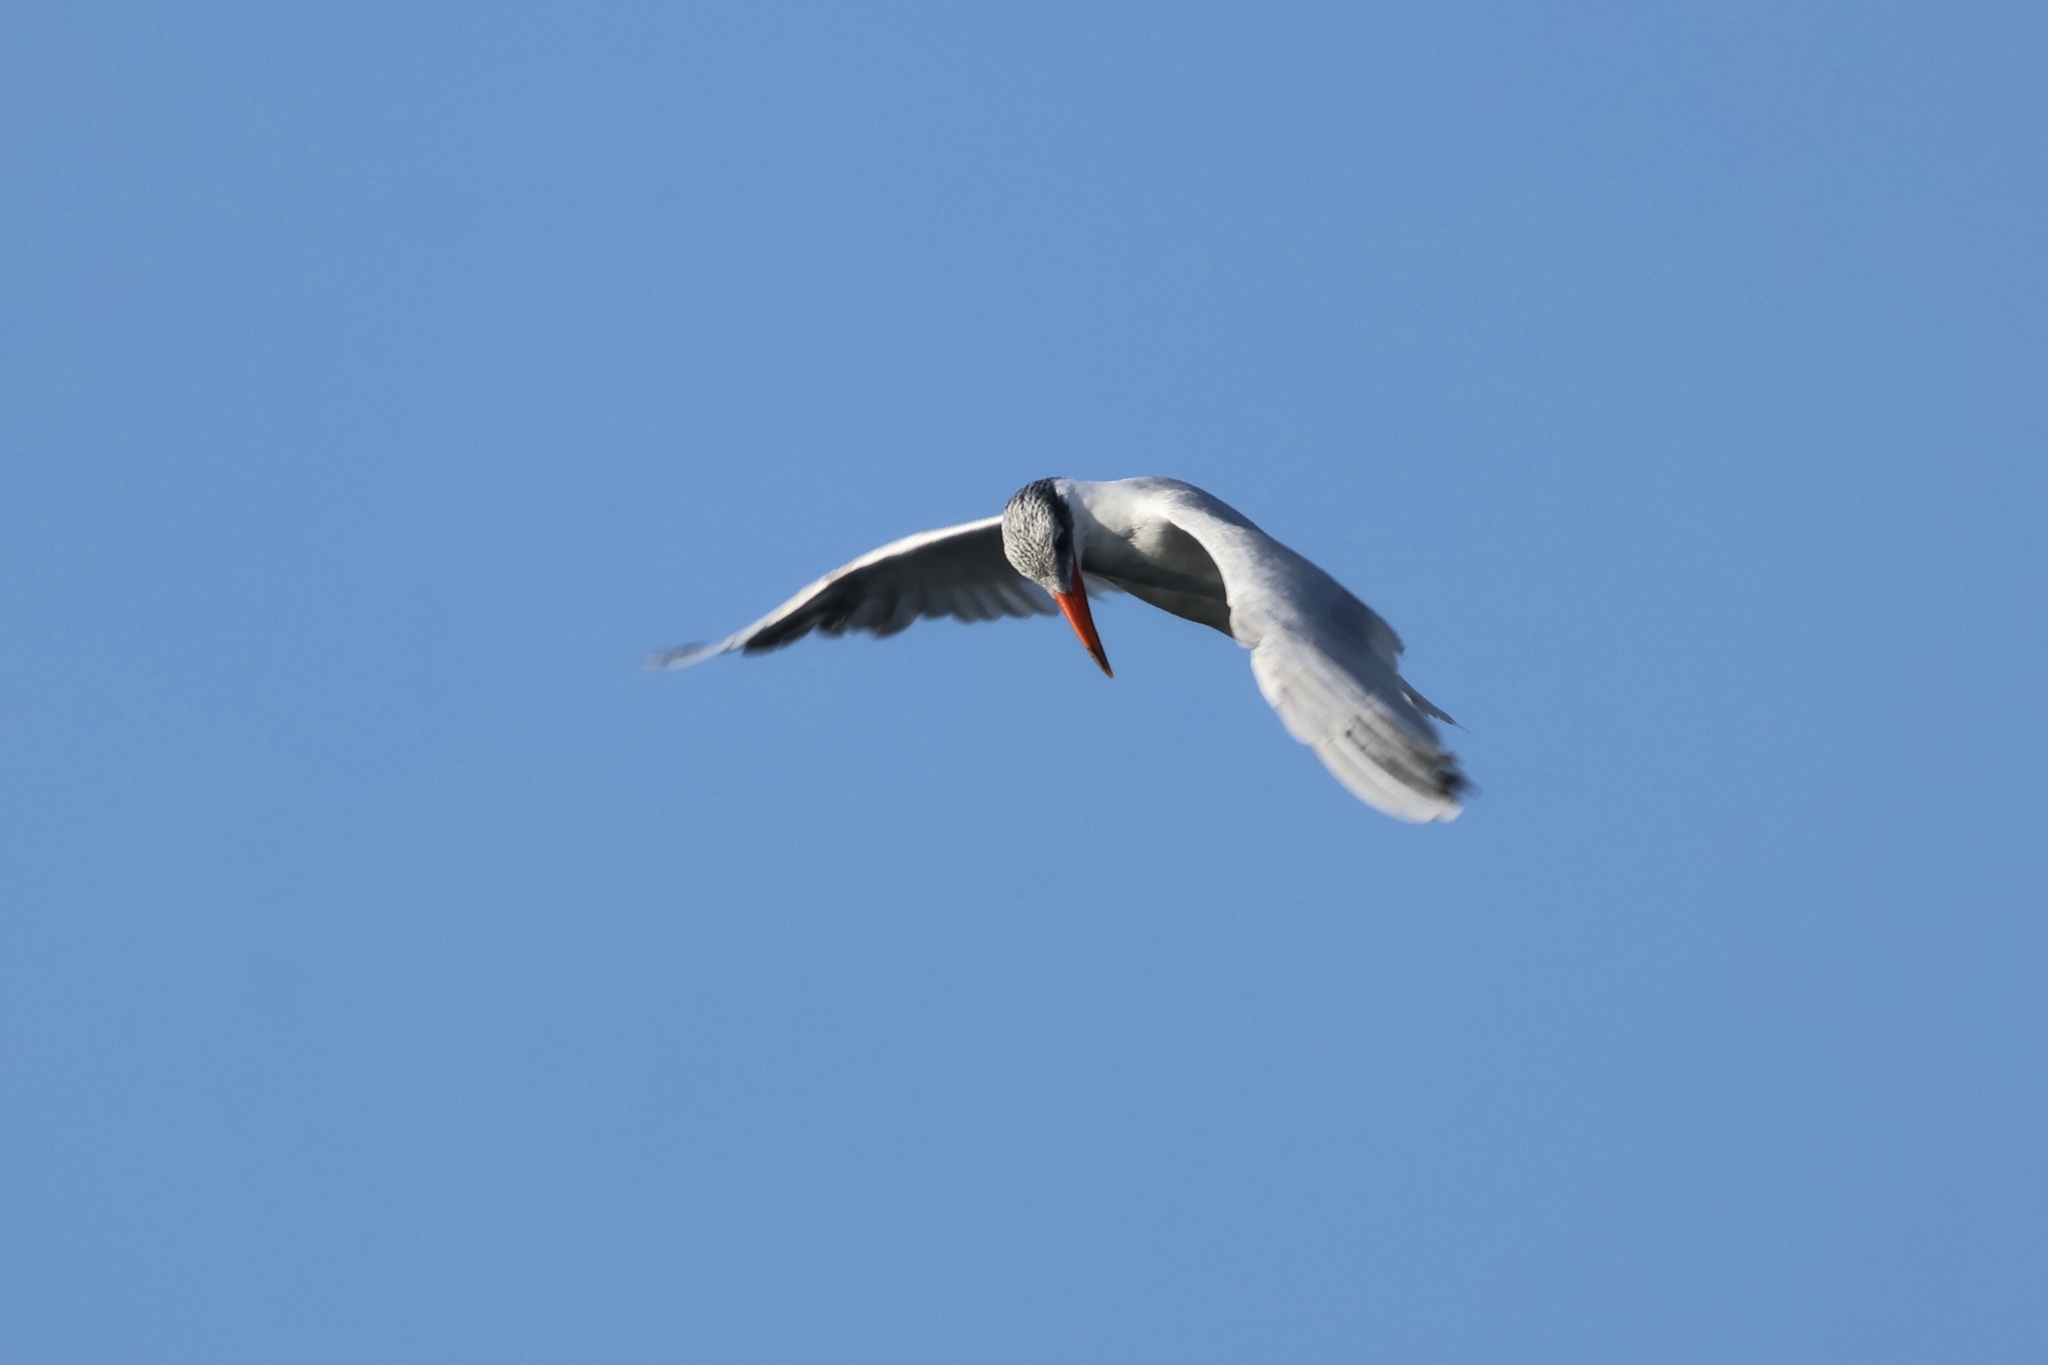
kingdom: Animalia
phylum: Chordata
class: Aves
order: Charadriiformes
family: Laridae
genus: Hydroprogne
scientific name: Hydroprogne caspia
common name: Caspian tern
